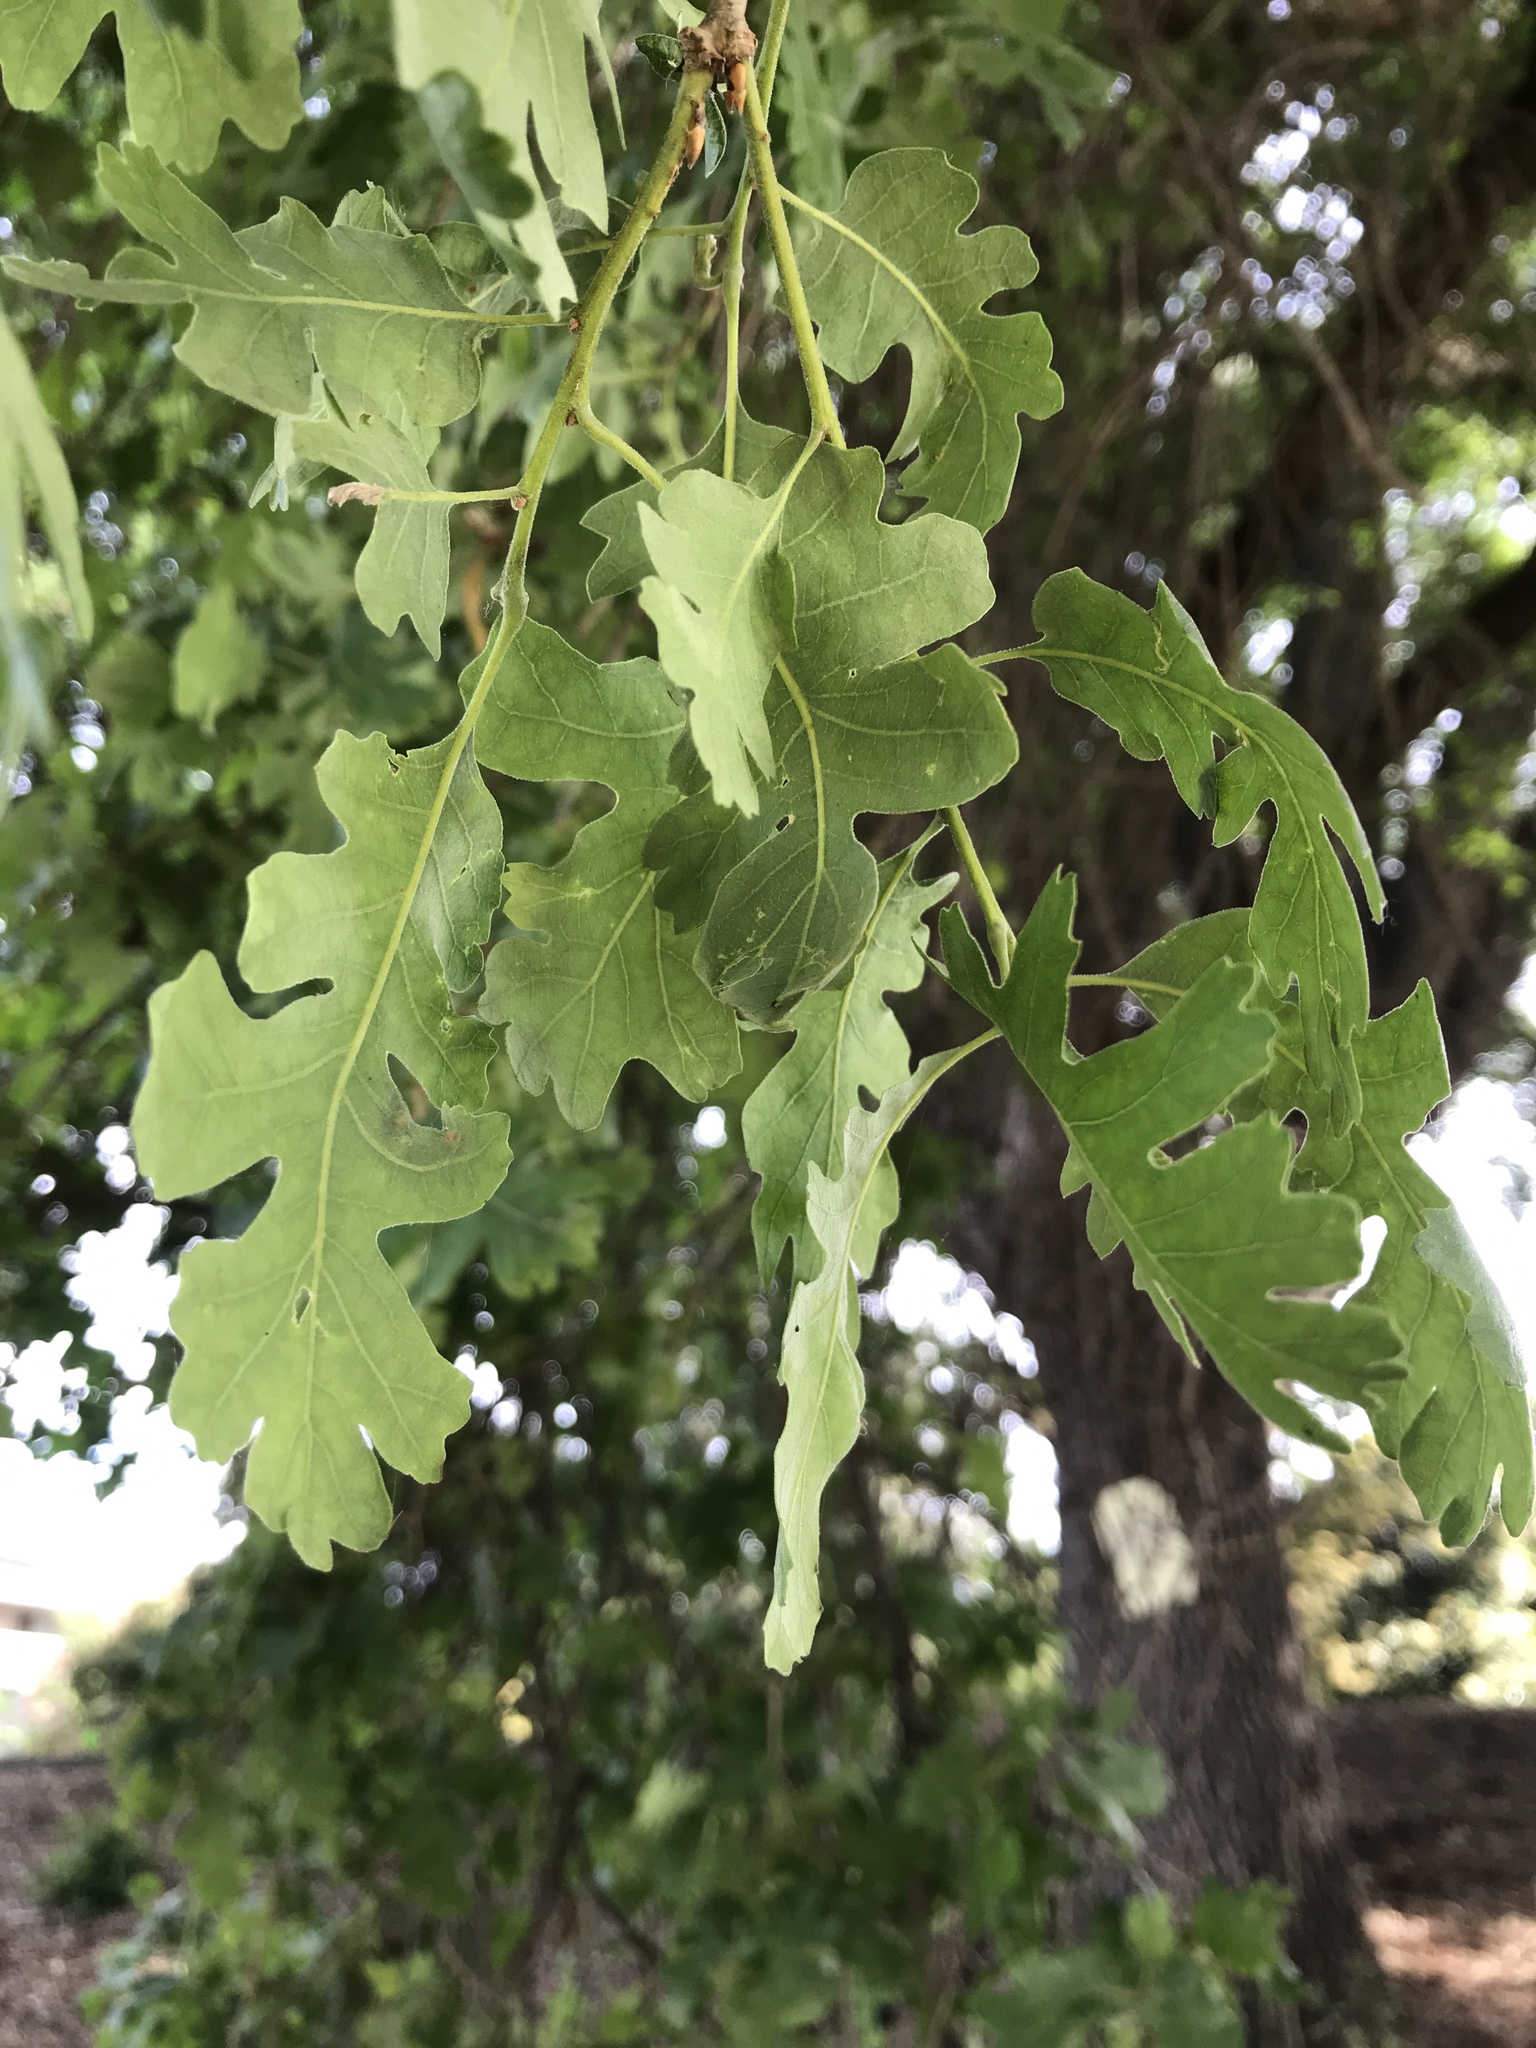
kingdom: Plantae
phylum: Tracheophyta
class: Magnoliopsida
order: Fagales
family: Fagaceae
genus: Quercus
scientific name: Quercus lobata
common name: Valley oak
